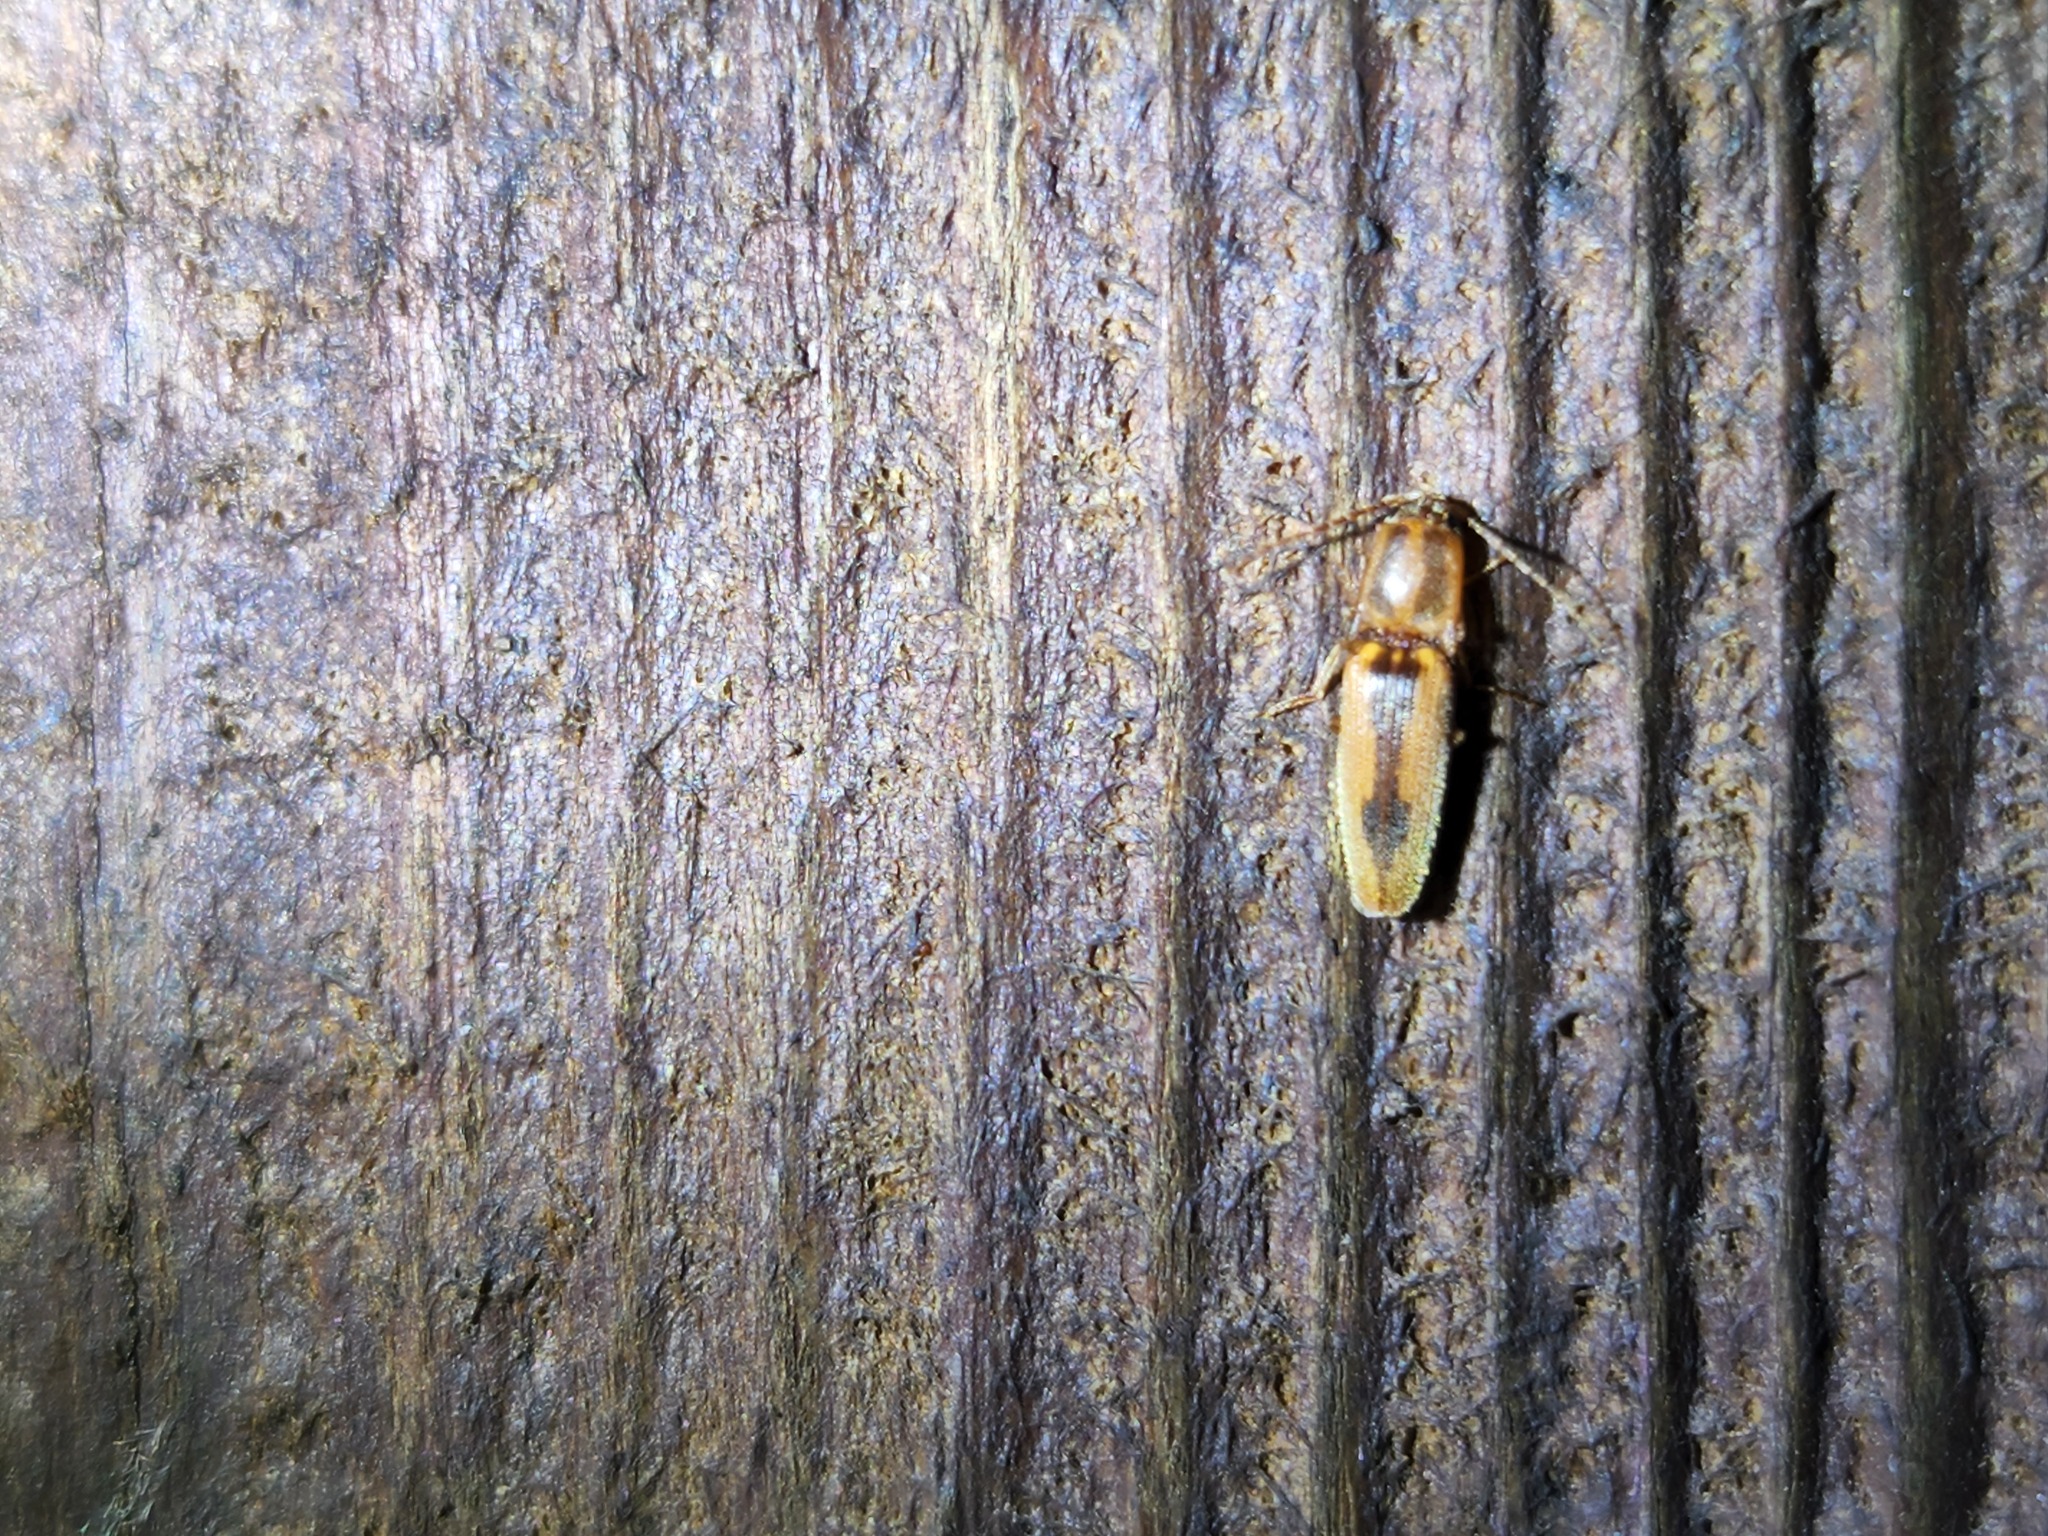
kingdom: Animalia
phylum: Arthropoda
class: Insecta
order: Coleoptera
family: Elateridae
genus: Monocrepidius
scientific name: Monocrepidius
